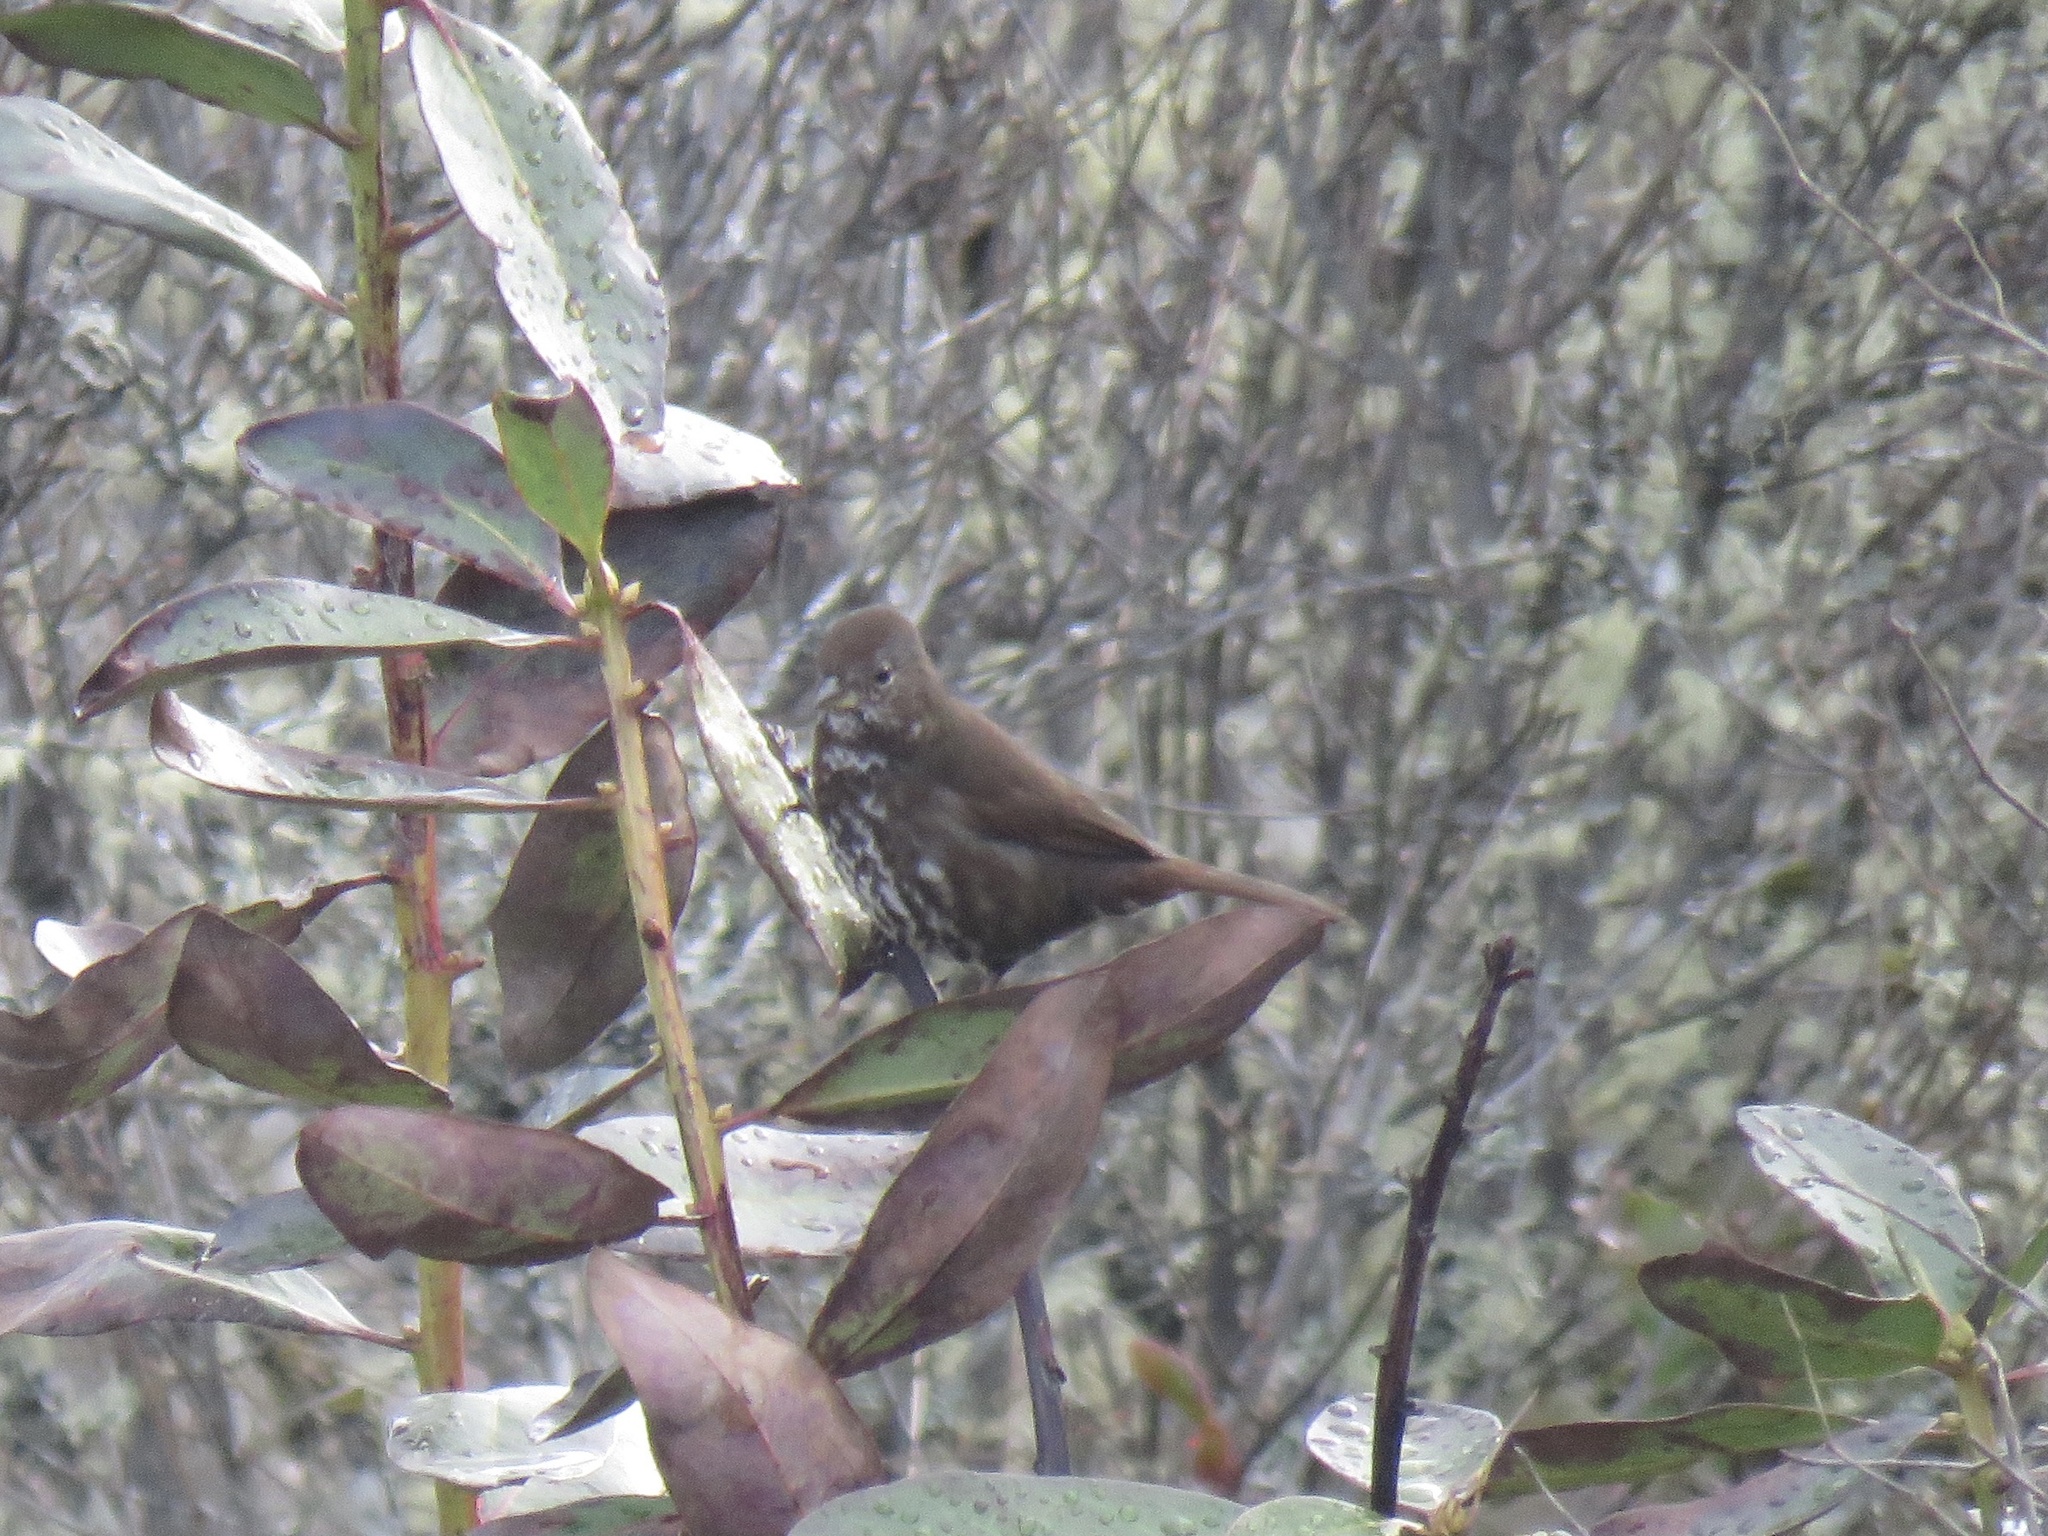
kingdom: Animalia
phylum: Chordata
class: Aves
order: Passeriformes
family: Passerellidae
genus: Passerella
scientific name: Passerella iliaca
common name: Fox sparrow
